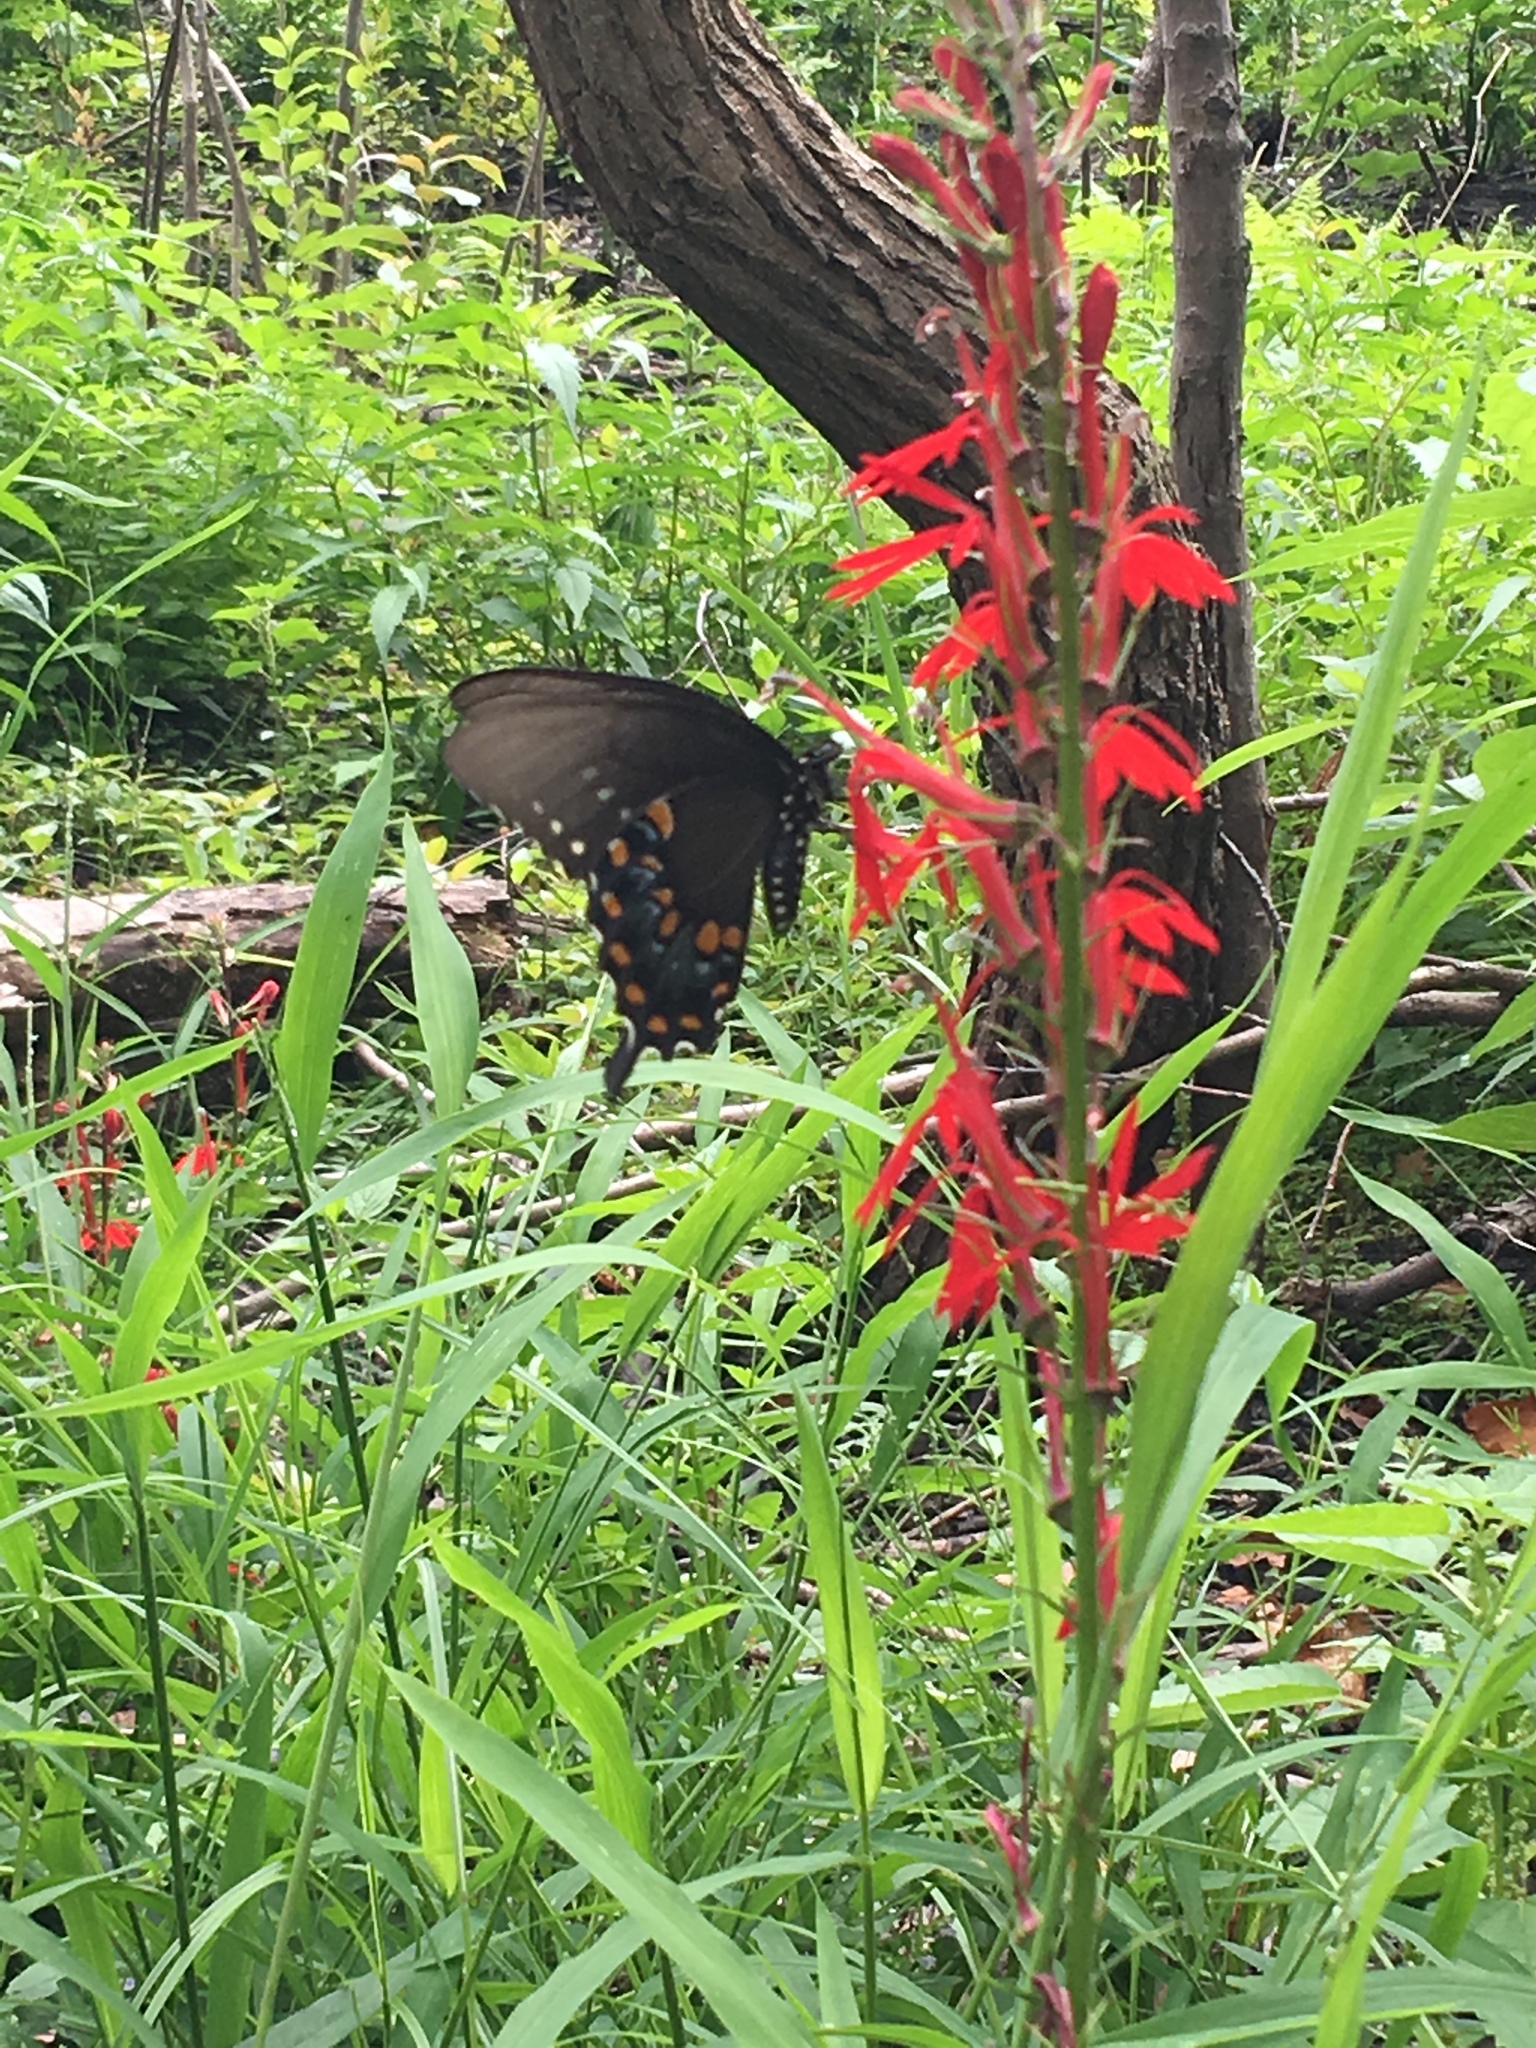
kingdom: Animalia
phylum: Arthropoda
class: Insecta
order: Lepidoptera
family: Papilionidae
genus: Papilio
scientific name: Papilio troilus
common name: Spicebush swallowtail
